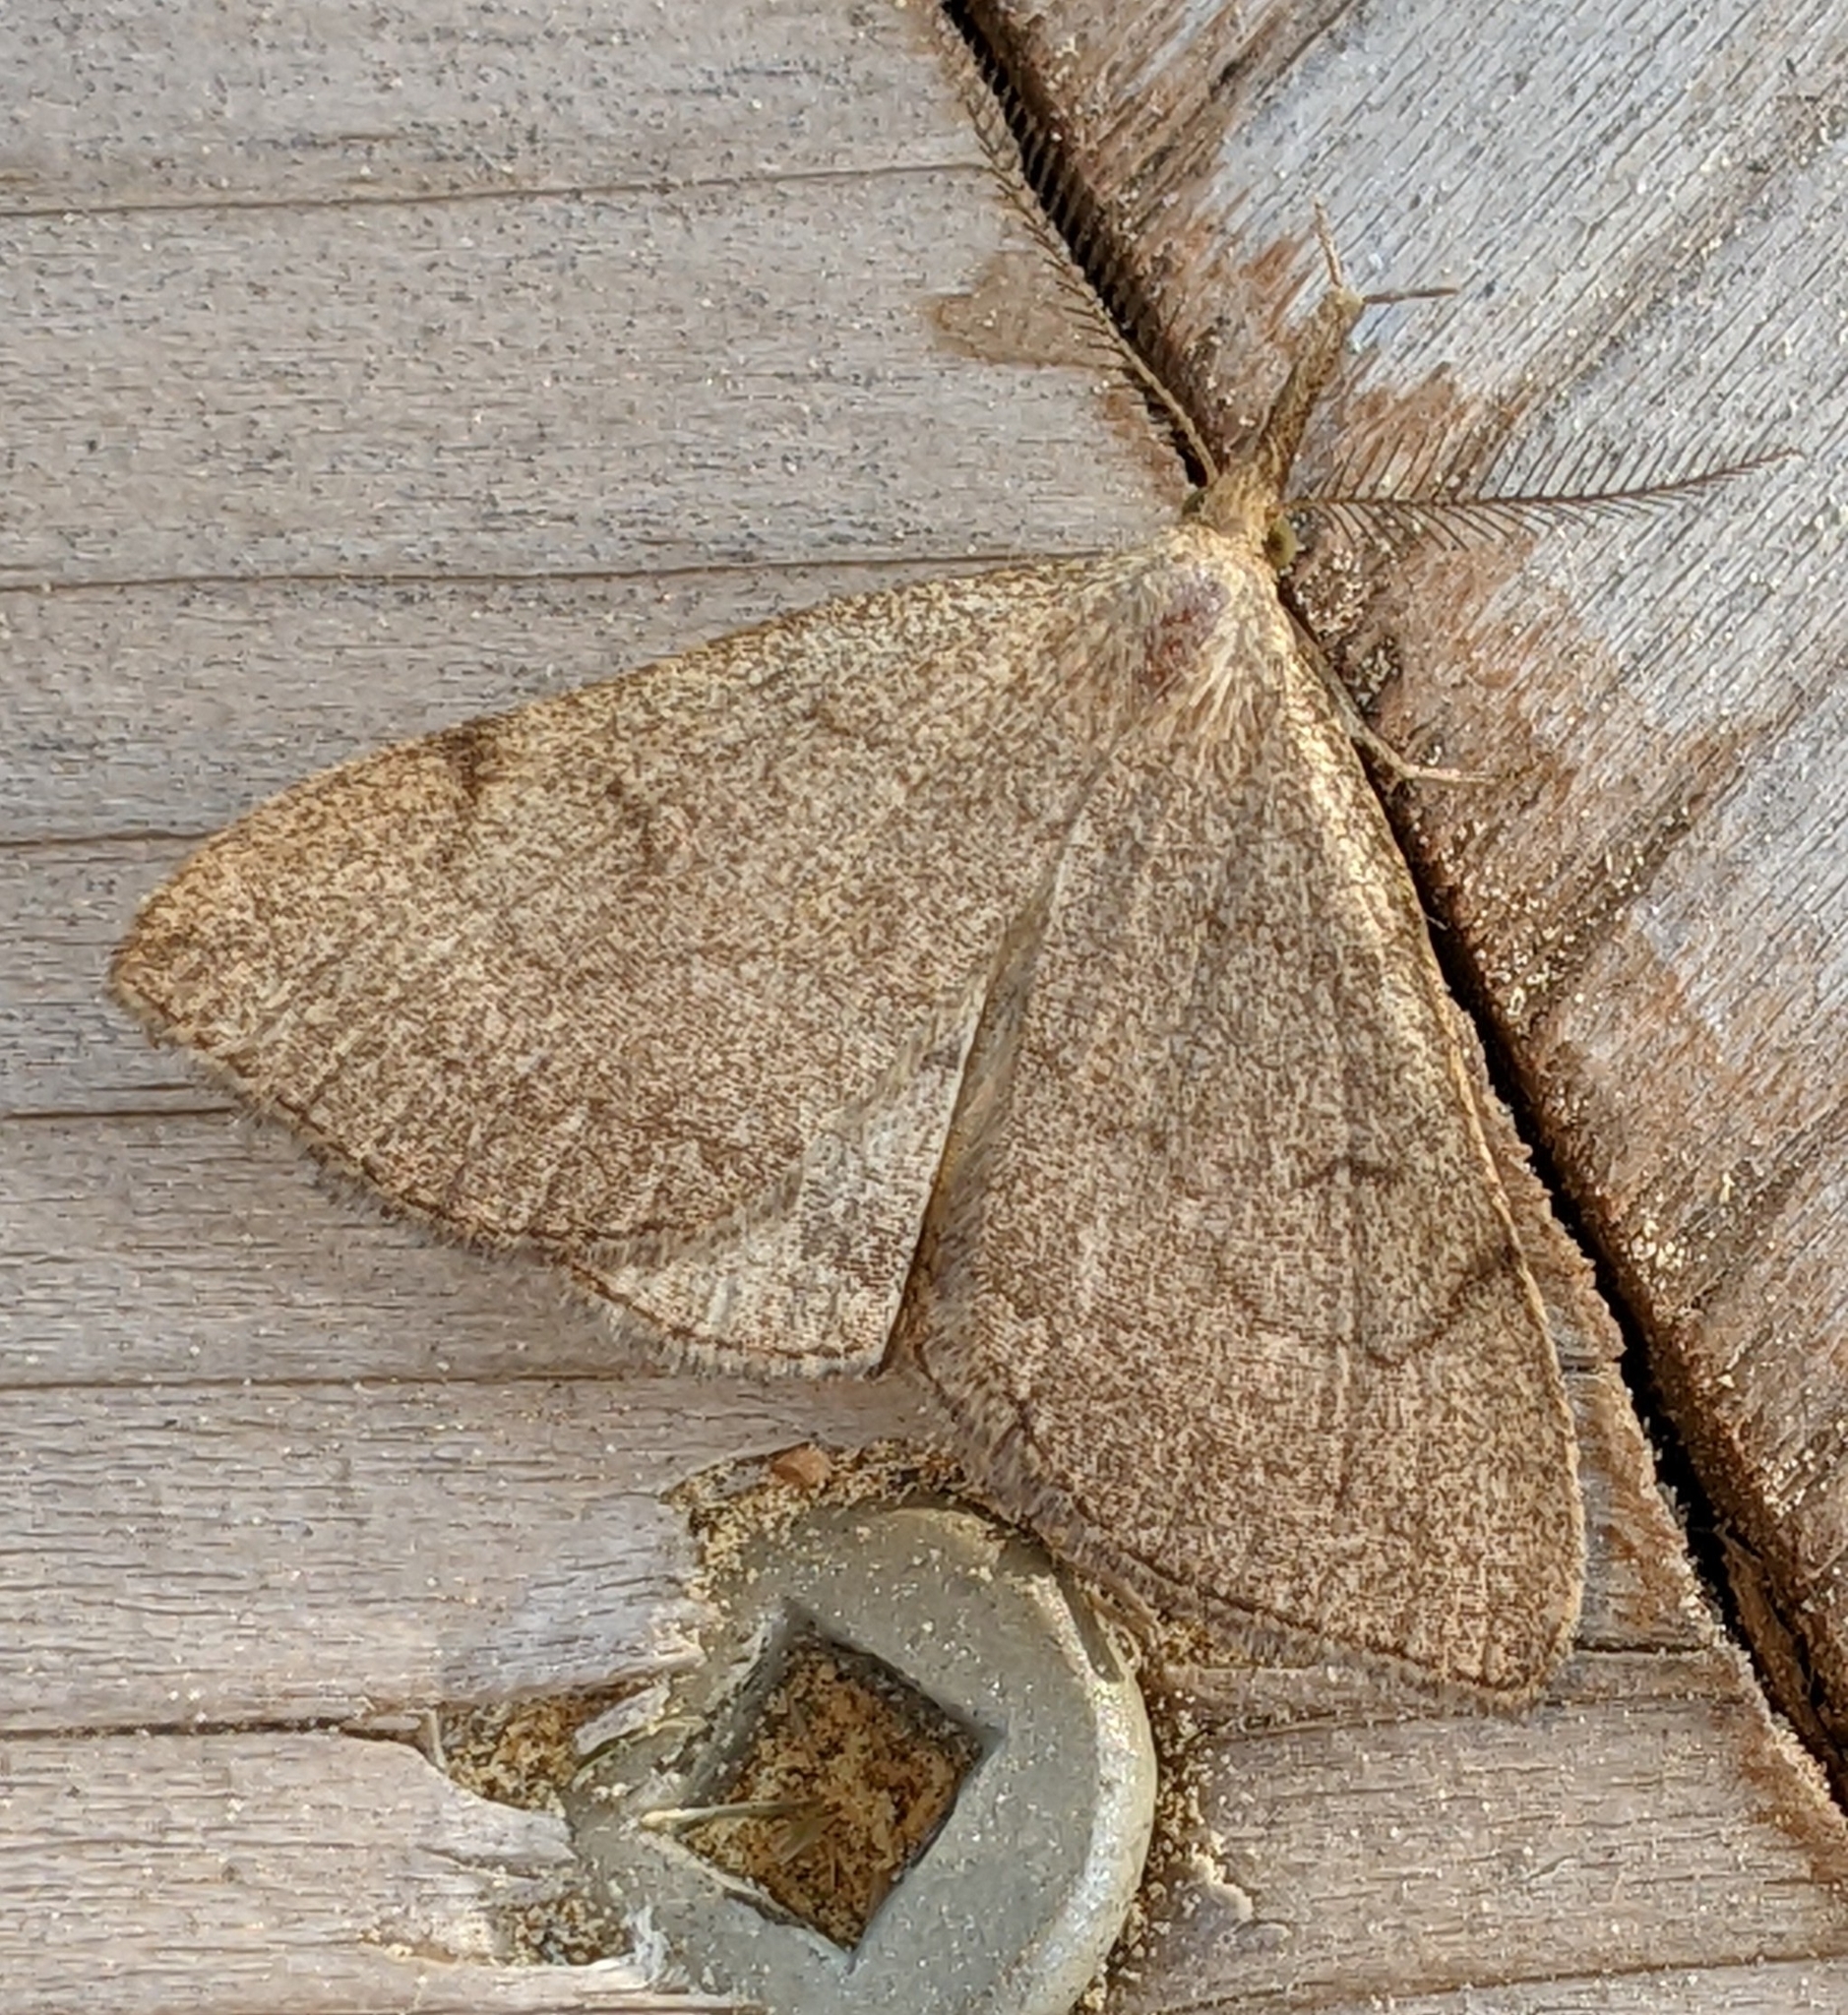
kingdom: Animalia
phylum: Arthropoda
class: Insecta
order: Lepidoptera
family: Erebidae
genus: Phalaenostola
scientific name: Phalaenostola metonalis
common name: Pale phalaenostola moth
